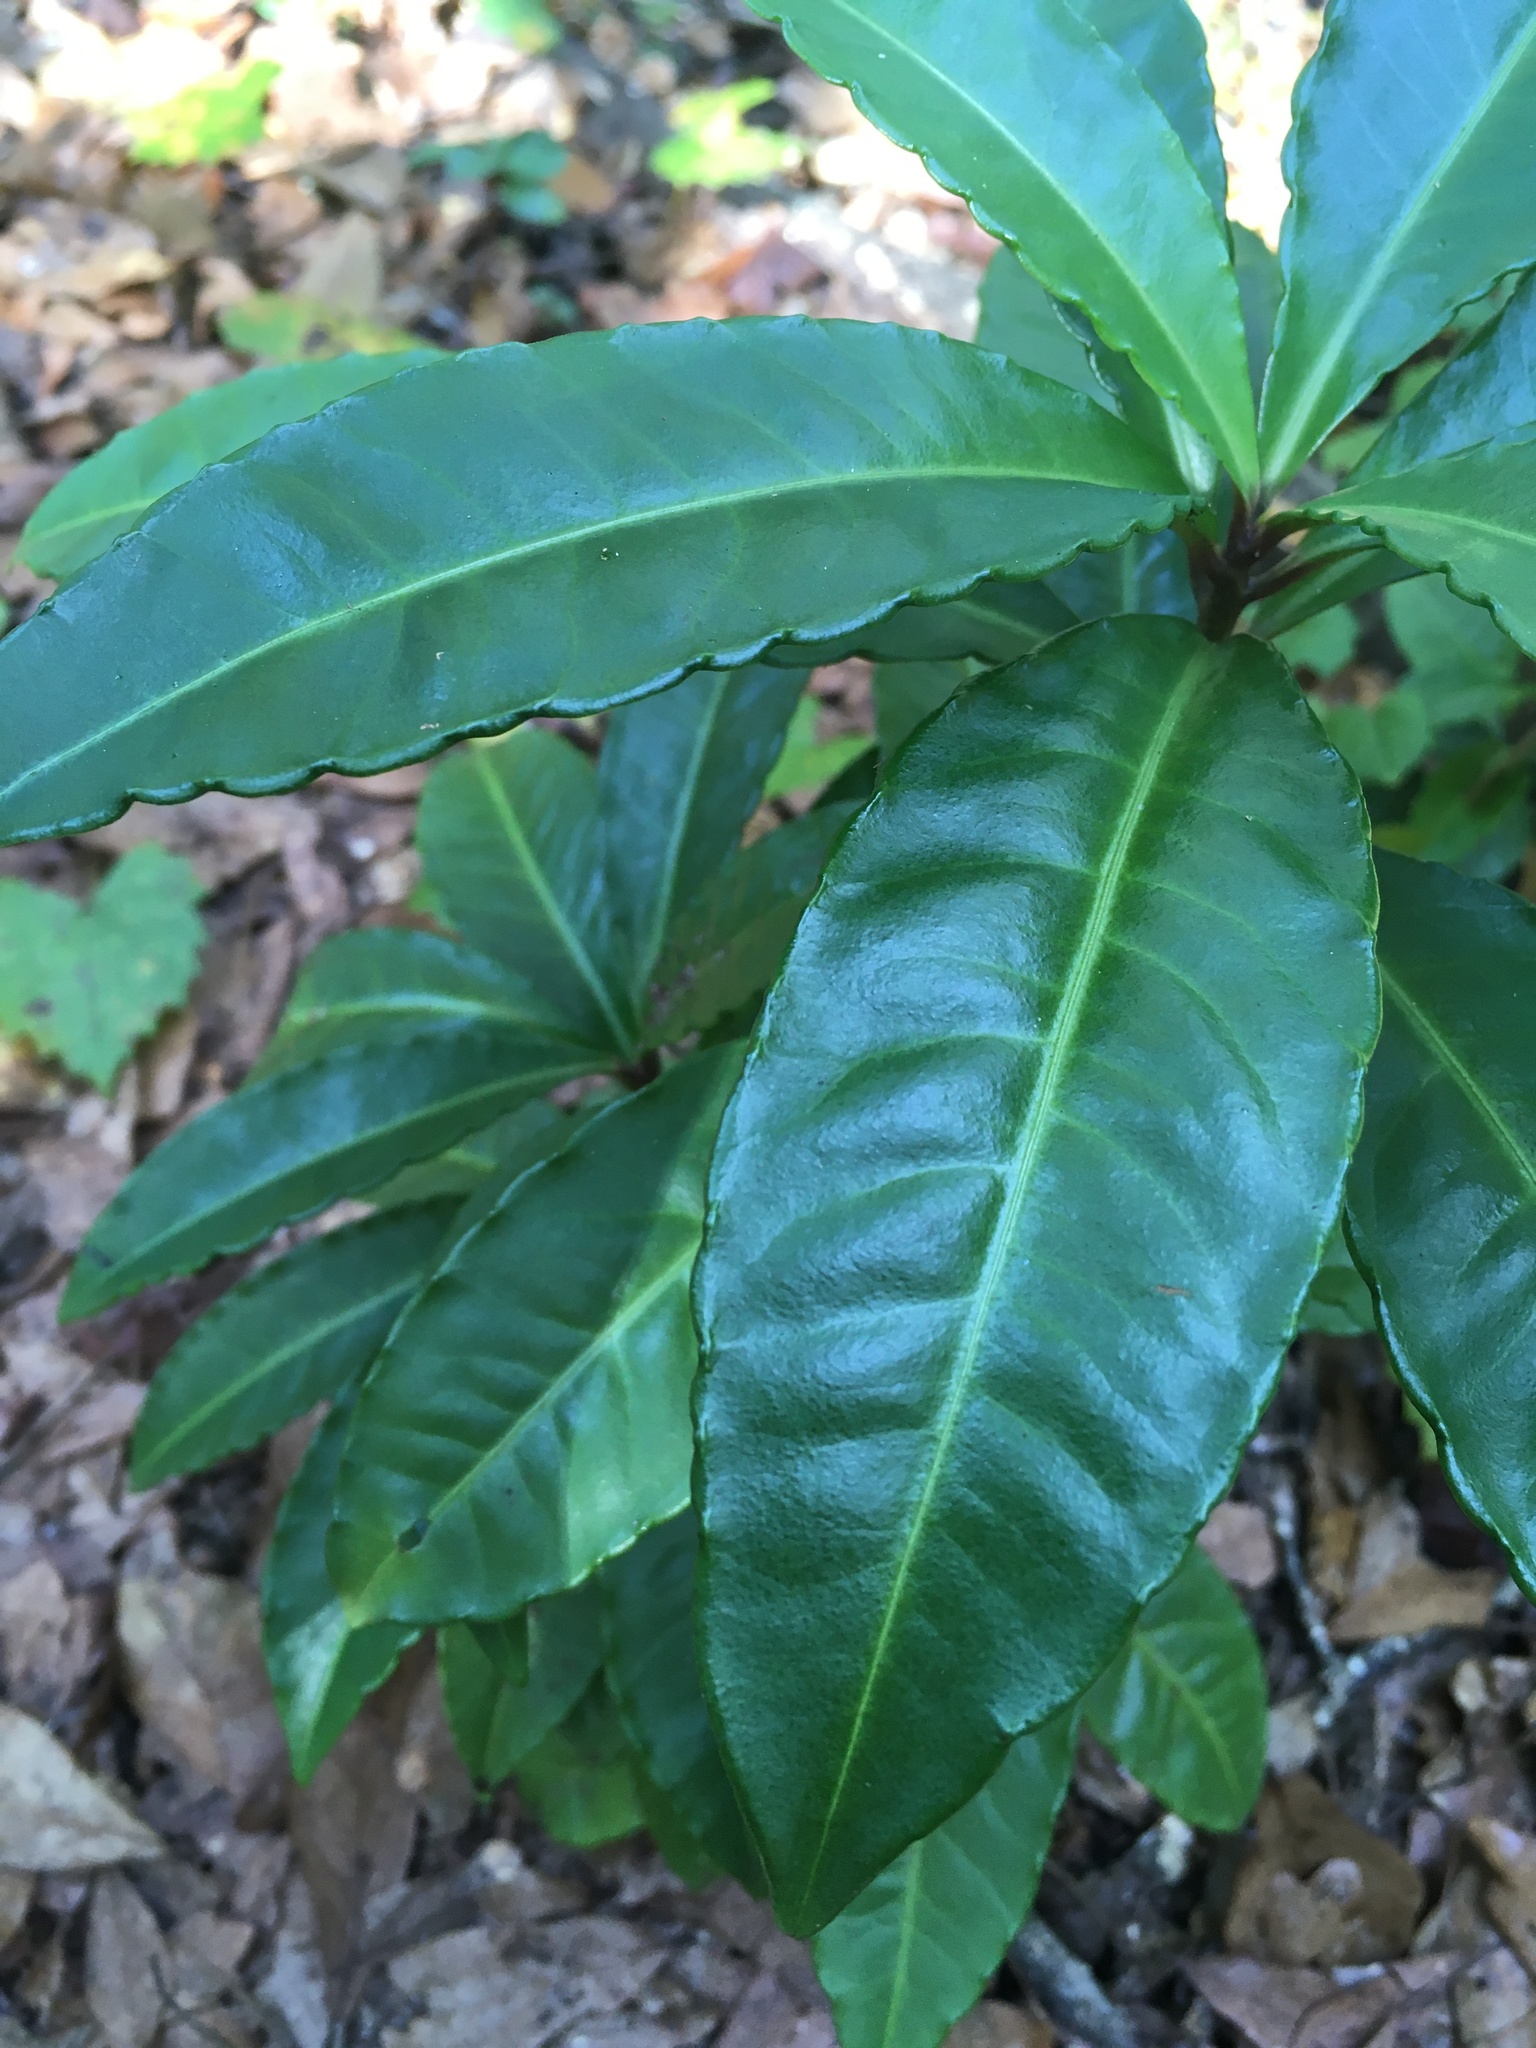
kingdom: Plantae
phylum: Tracheophyta
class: Magnoliopsida
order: Ericales
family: Primulaceae
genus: Ardisia
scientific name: Ardisia crenata
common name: Hen's eyes
